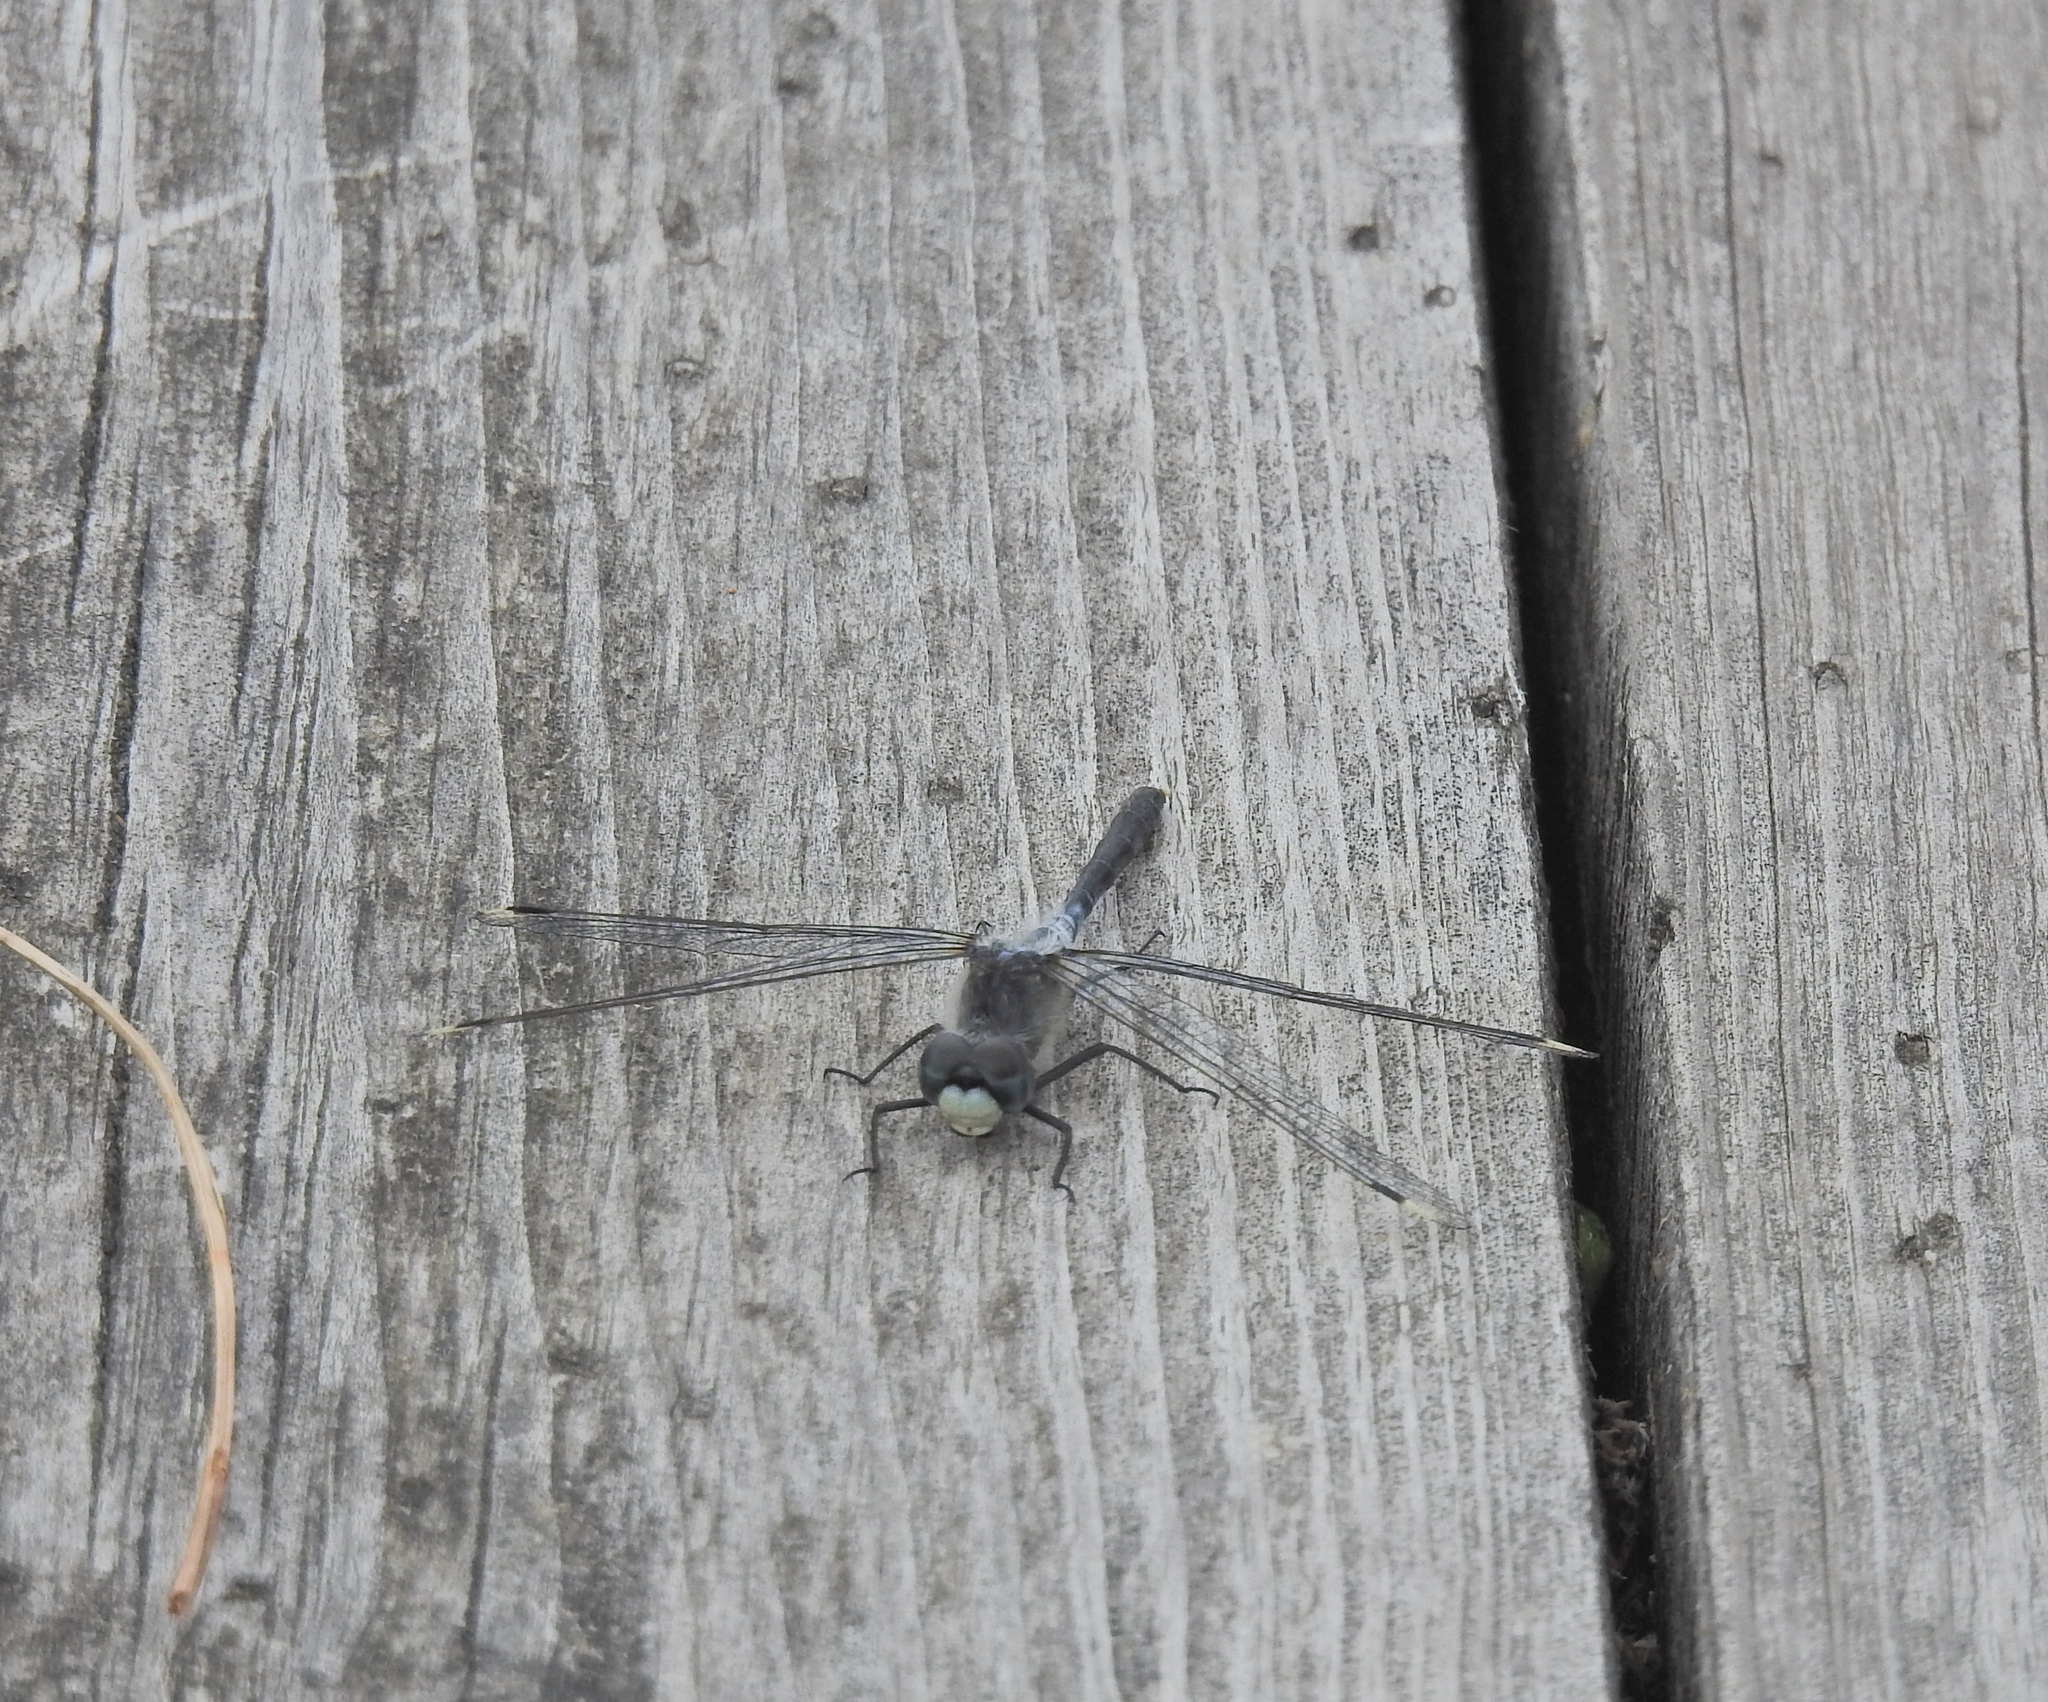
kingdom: Animalia
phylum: Arthropoda
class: Insecta
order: Odonata
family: Libellulidae
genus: Leucorrhinia
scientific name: Leucorrhinia albifrons
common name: Dark whiteface
